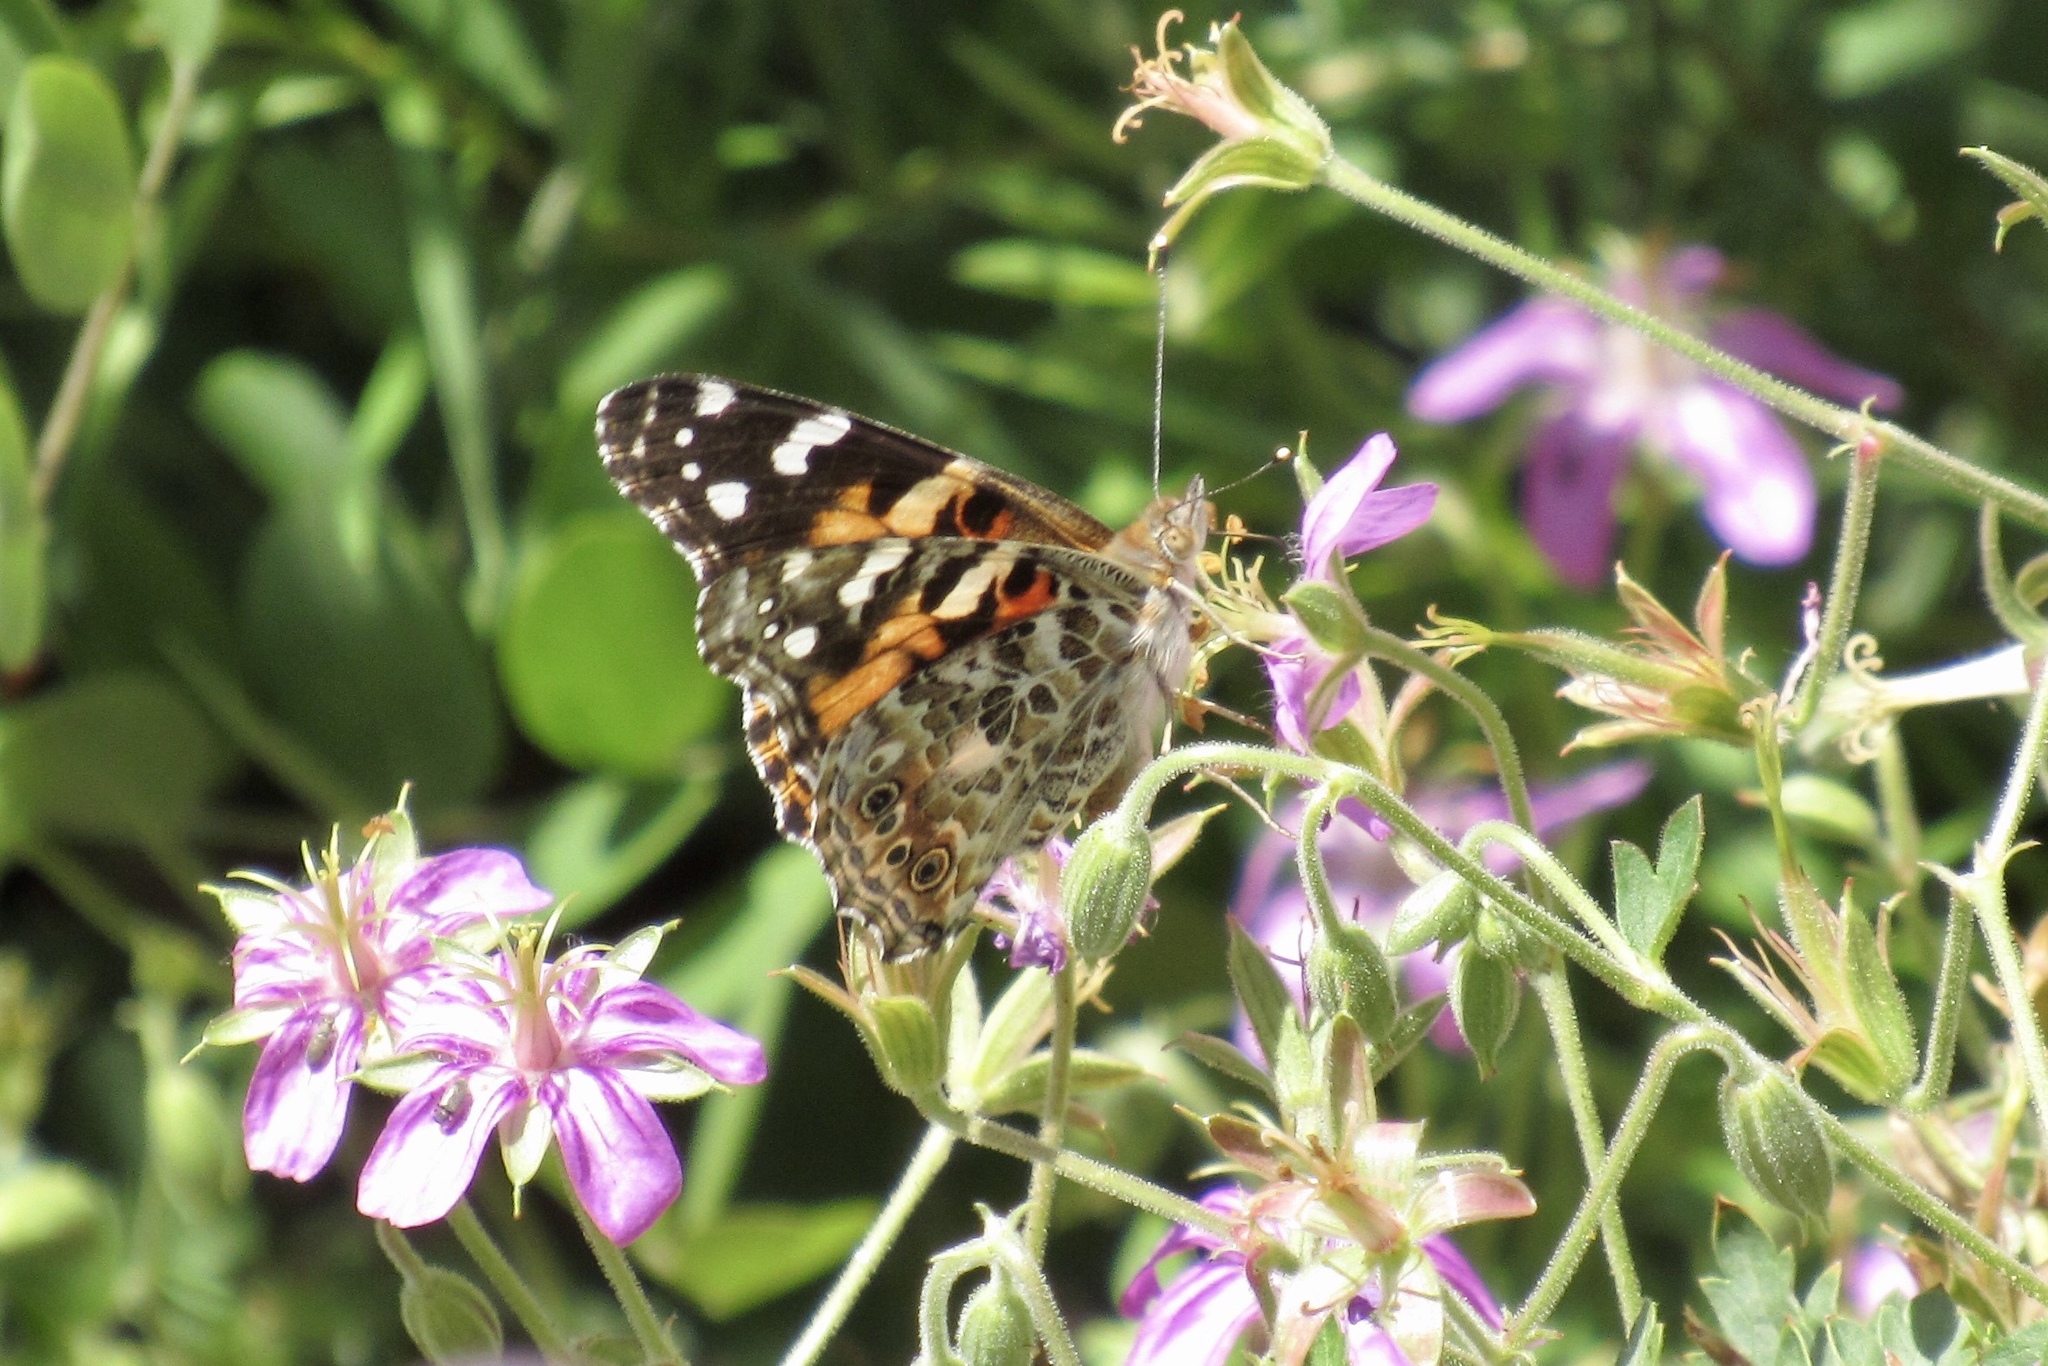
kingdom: Animalia
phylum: Arthropoda
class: Insecta
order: Lepidoptera
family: Nymphalidae
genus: Vanessa
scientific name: Vanessa cardui
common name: Painted lady
